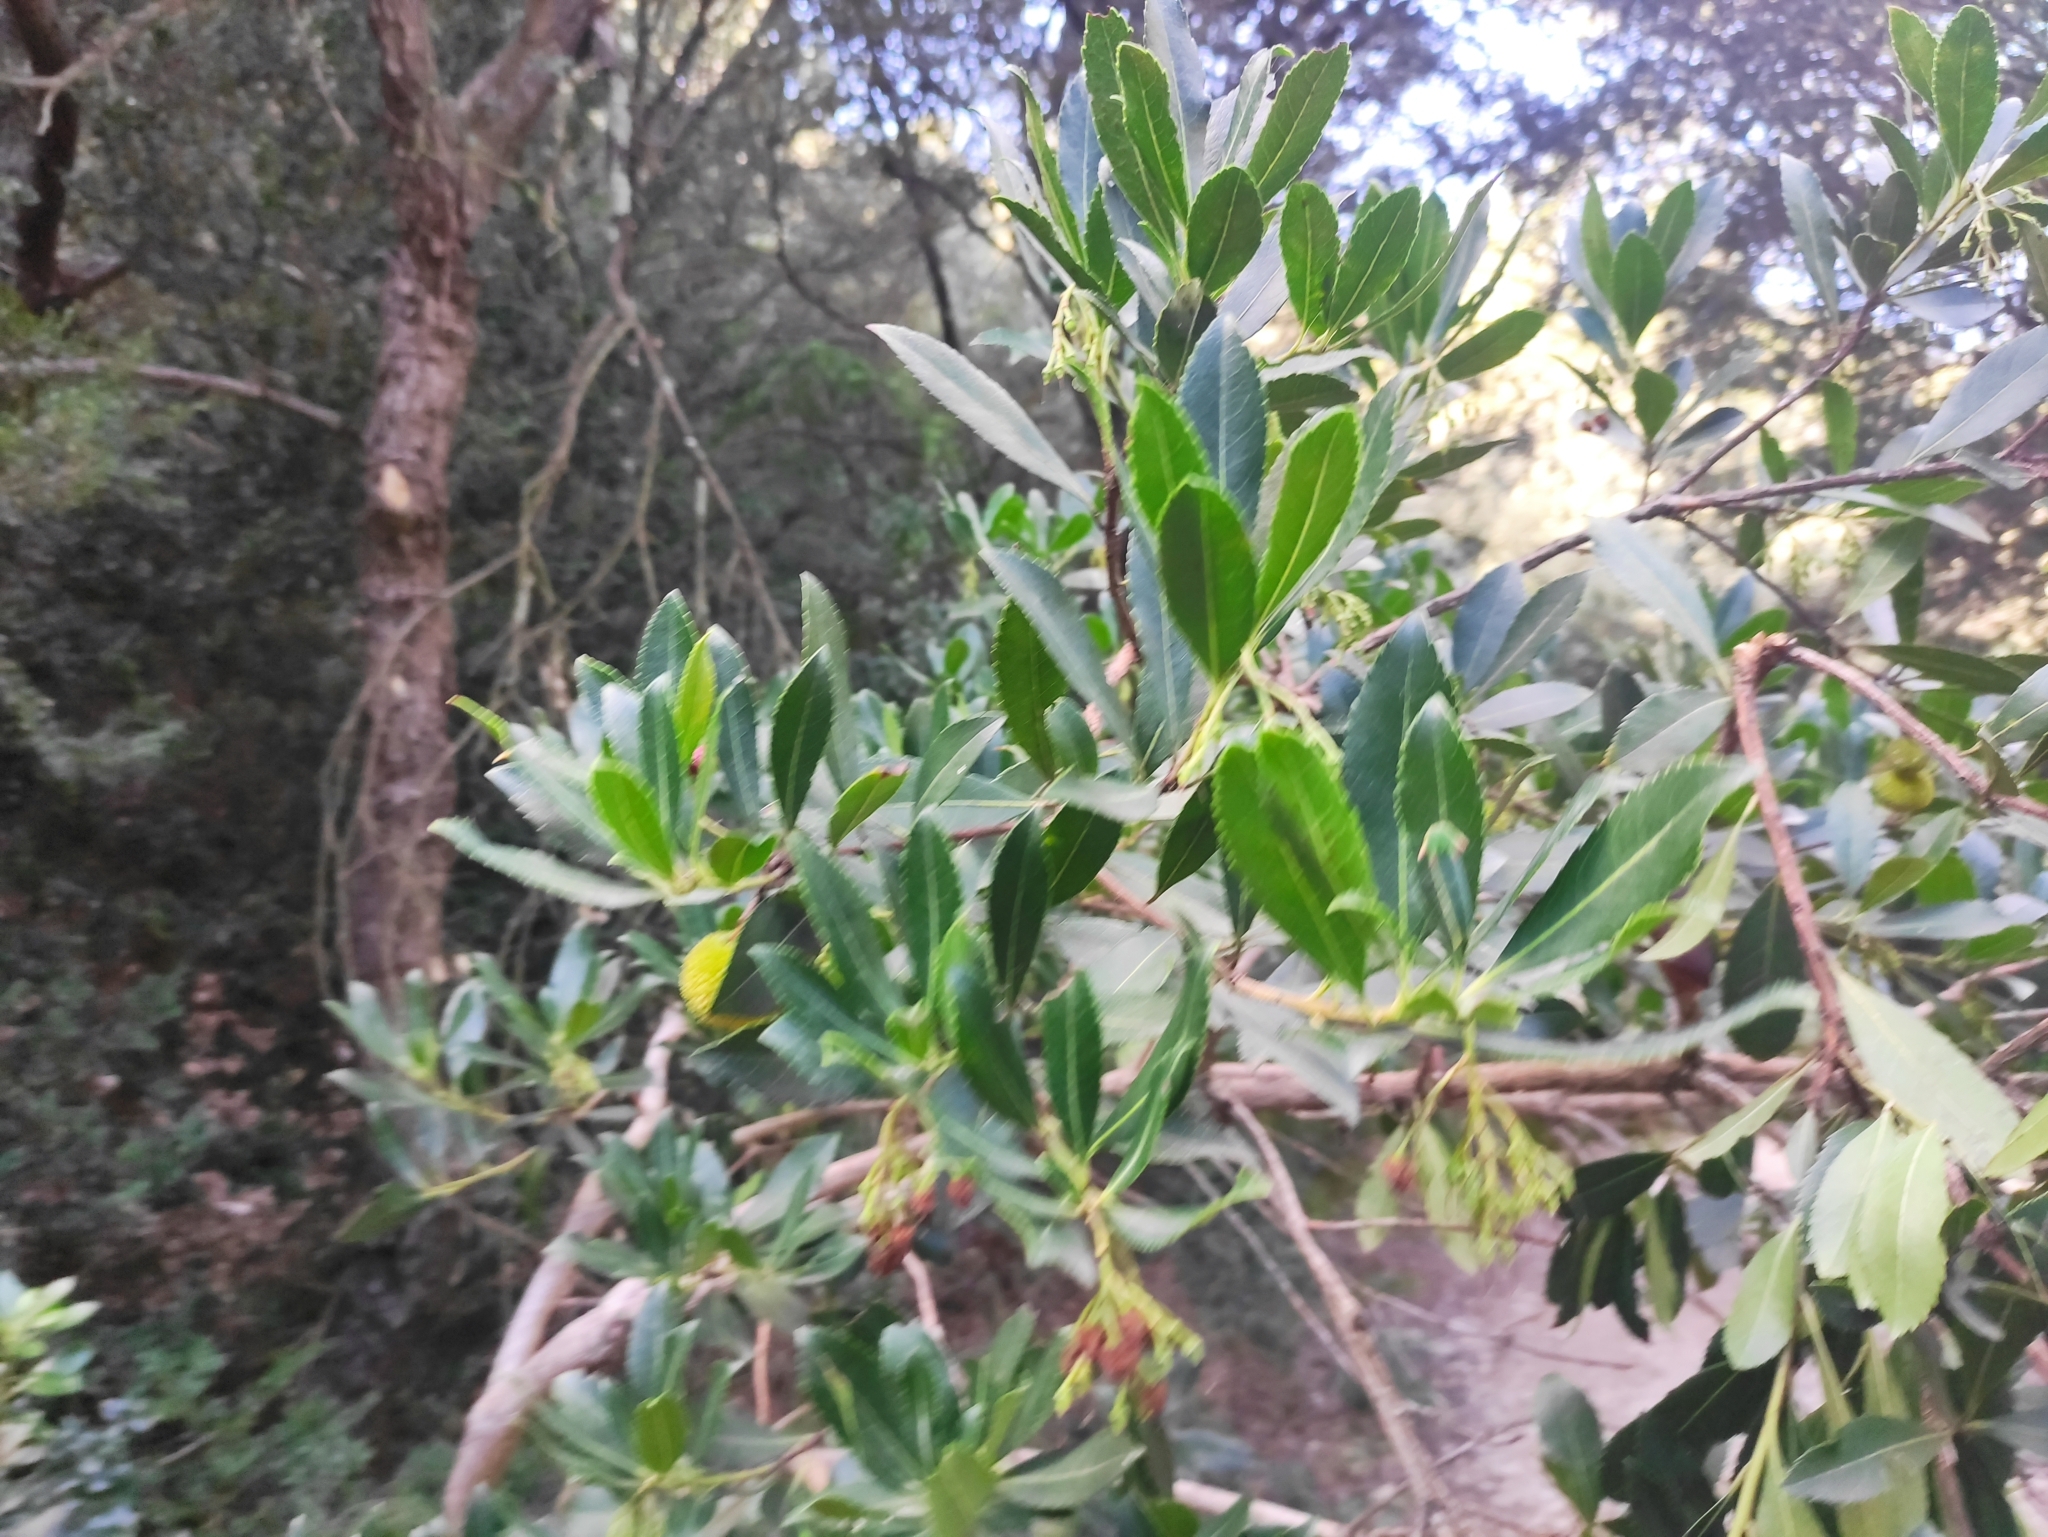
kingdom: Plantae
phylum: Tracheophyta
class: Magnoliopsida
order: Ericales
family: Ericaceae
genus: Arbutus
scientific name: Arbutus unedo
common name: Strawberry-tree
